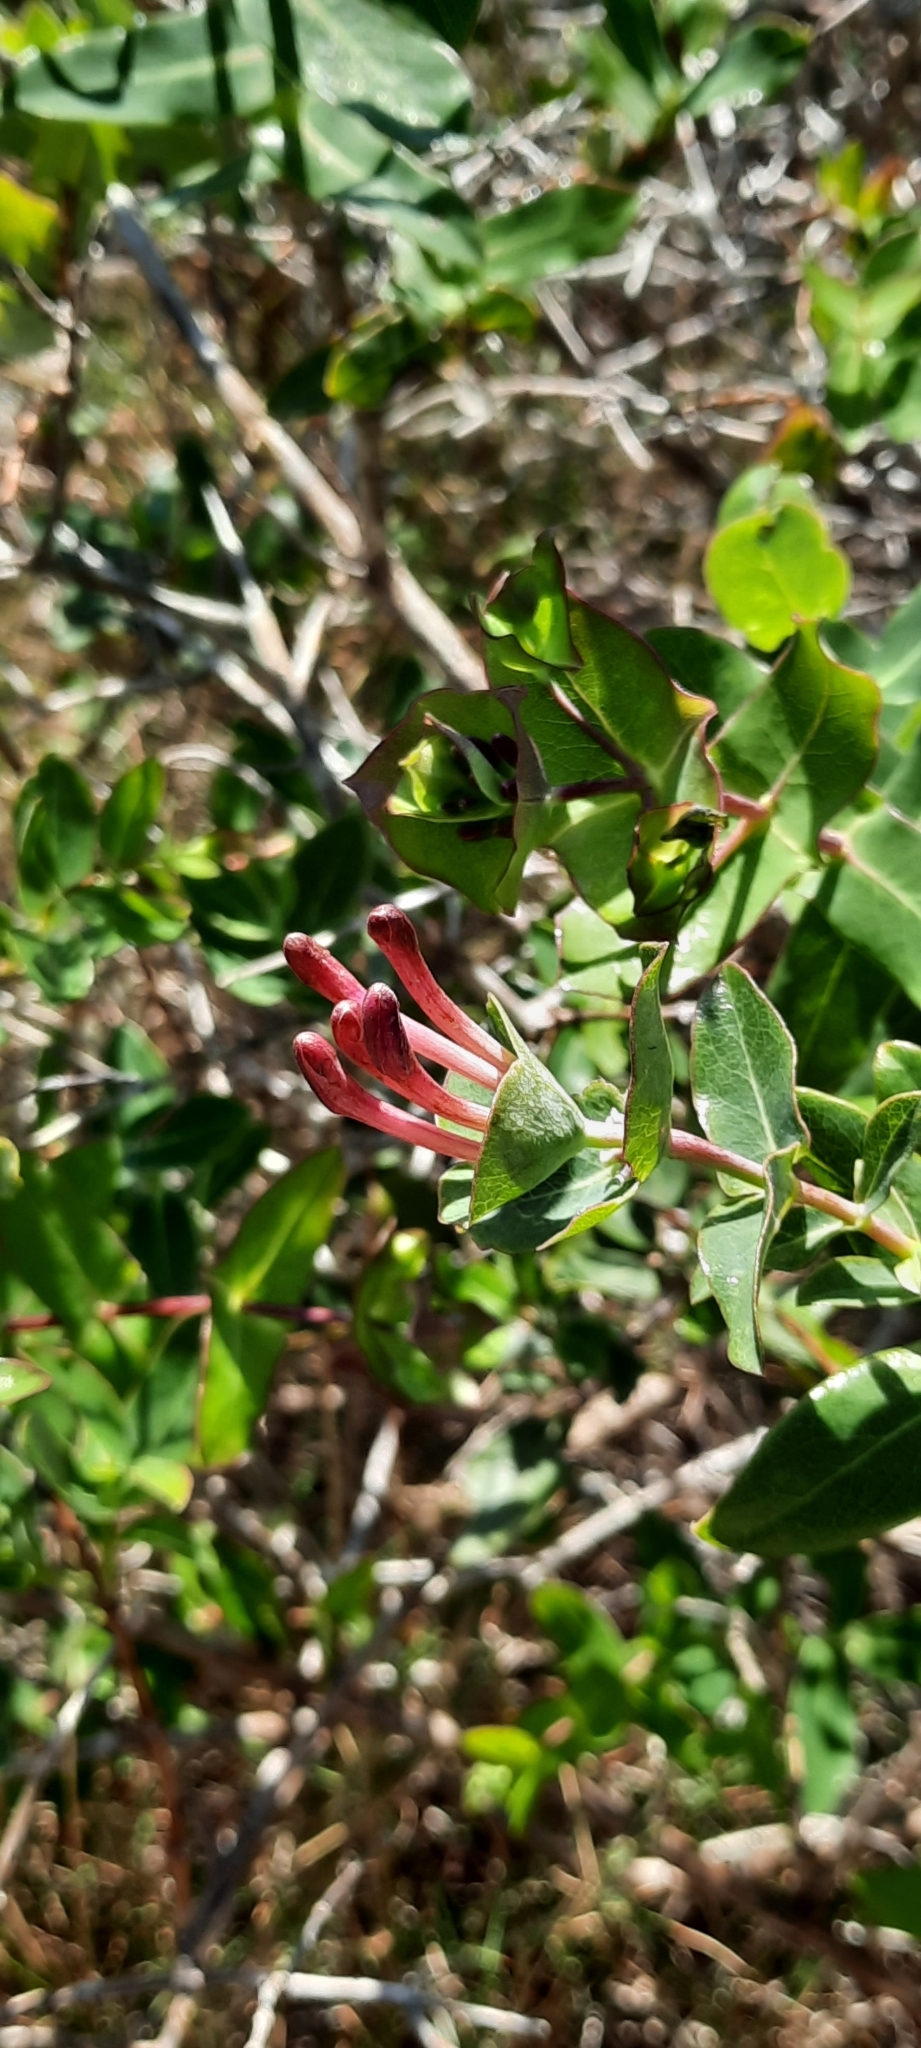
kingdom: Plantae
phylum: Tracheophyta
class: Magnoliopsida
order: Dipsacales
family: Caprifoliaceae
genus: Lonicera
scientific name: Lonicera implexa
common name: Minorca honeysuckle
